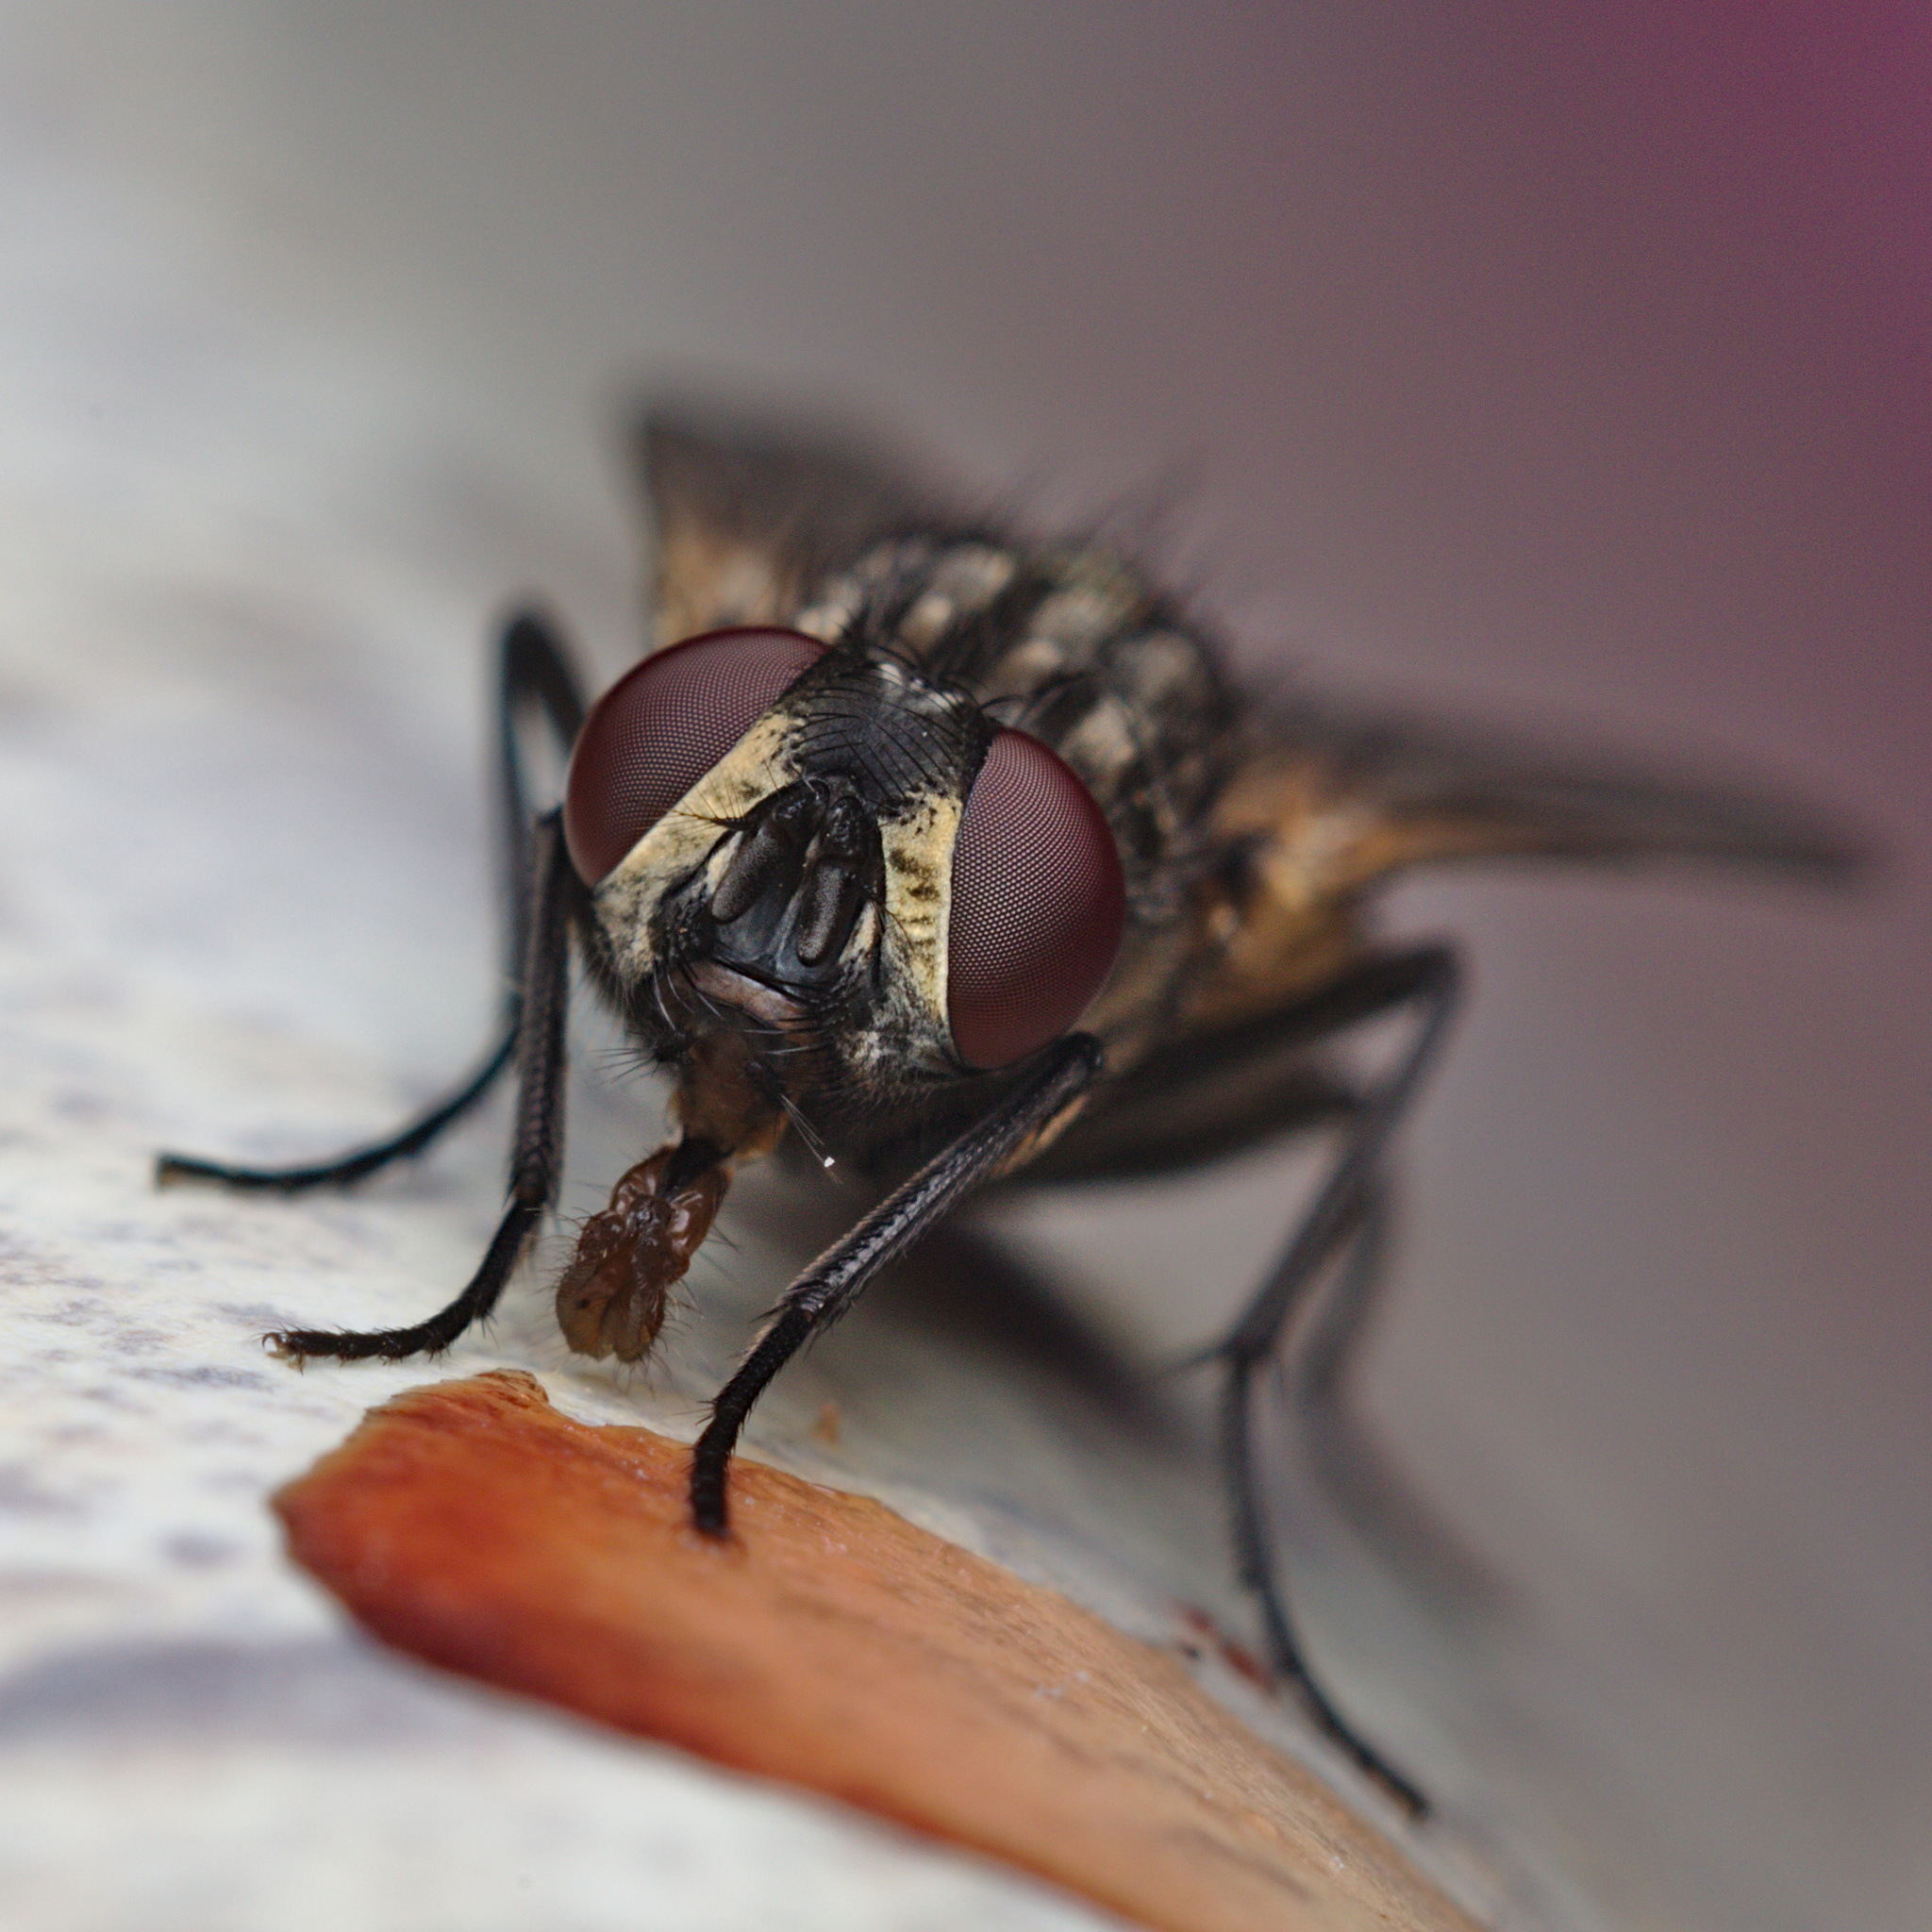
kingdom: Animalia
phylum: Arthropoda
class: Insecta
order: Diptera
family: Muscidae
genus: Musca
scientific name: Musca domestica
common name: House fly
